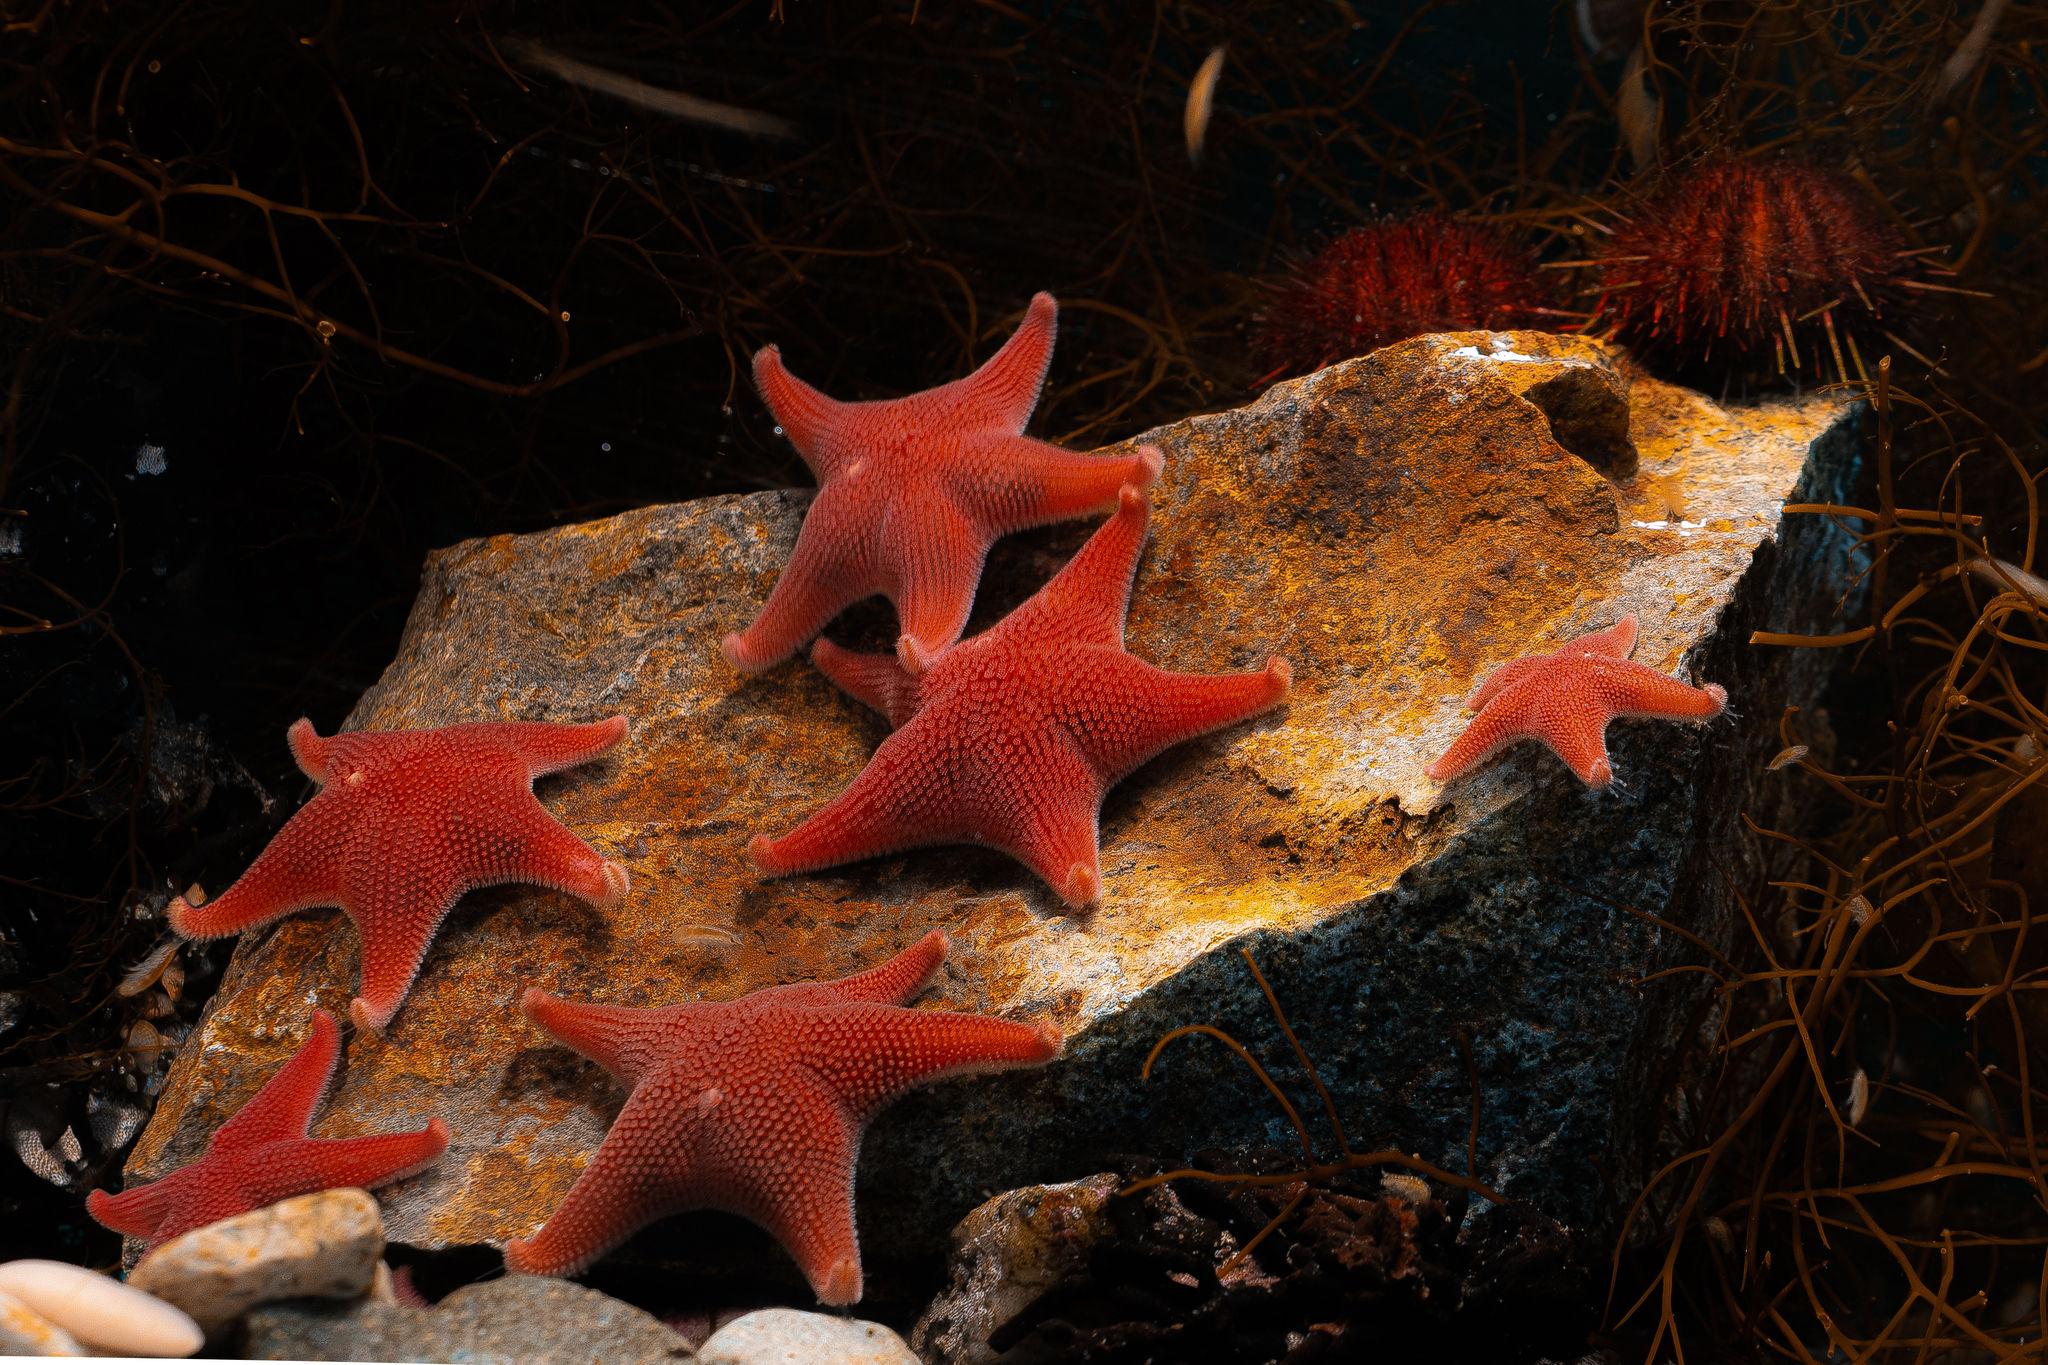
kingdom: Animalia
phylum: Echinodermata
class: Asteroidea
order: Valvatida
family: Odontasteridae
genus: Odontaster
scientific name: Odontaster validus
